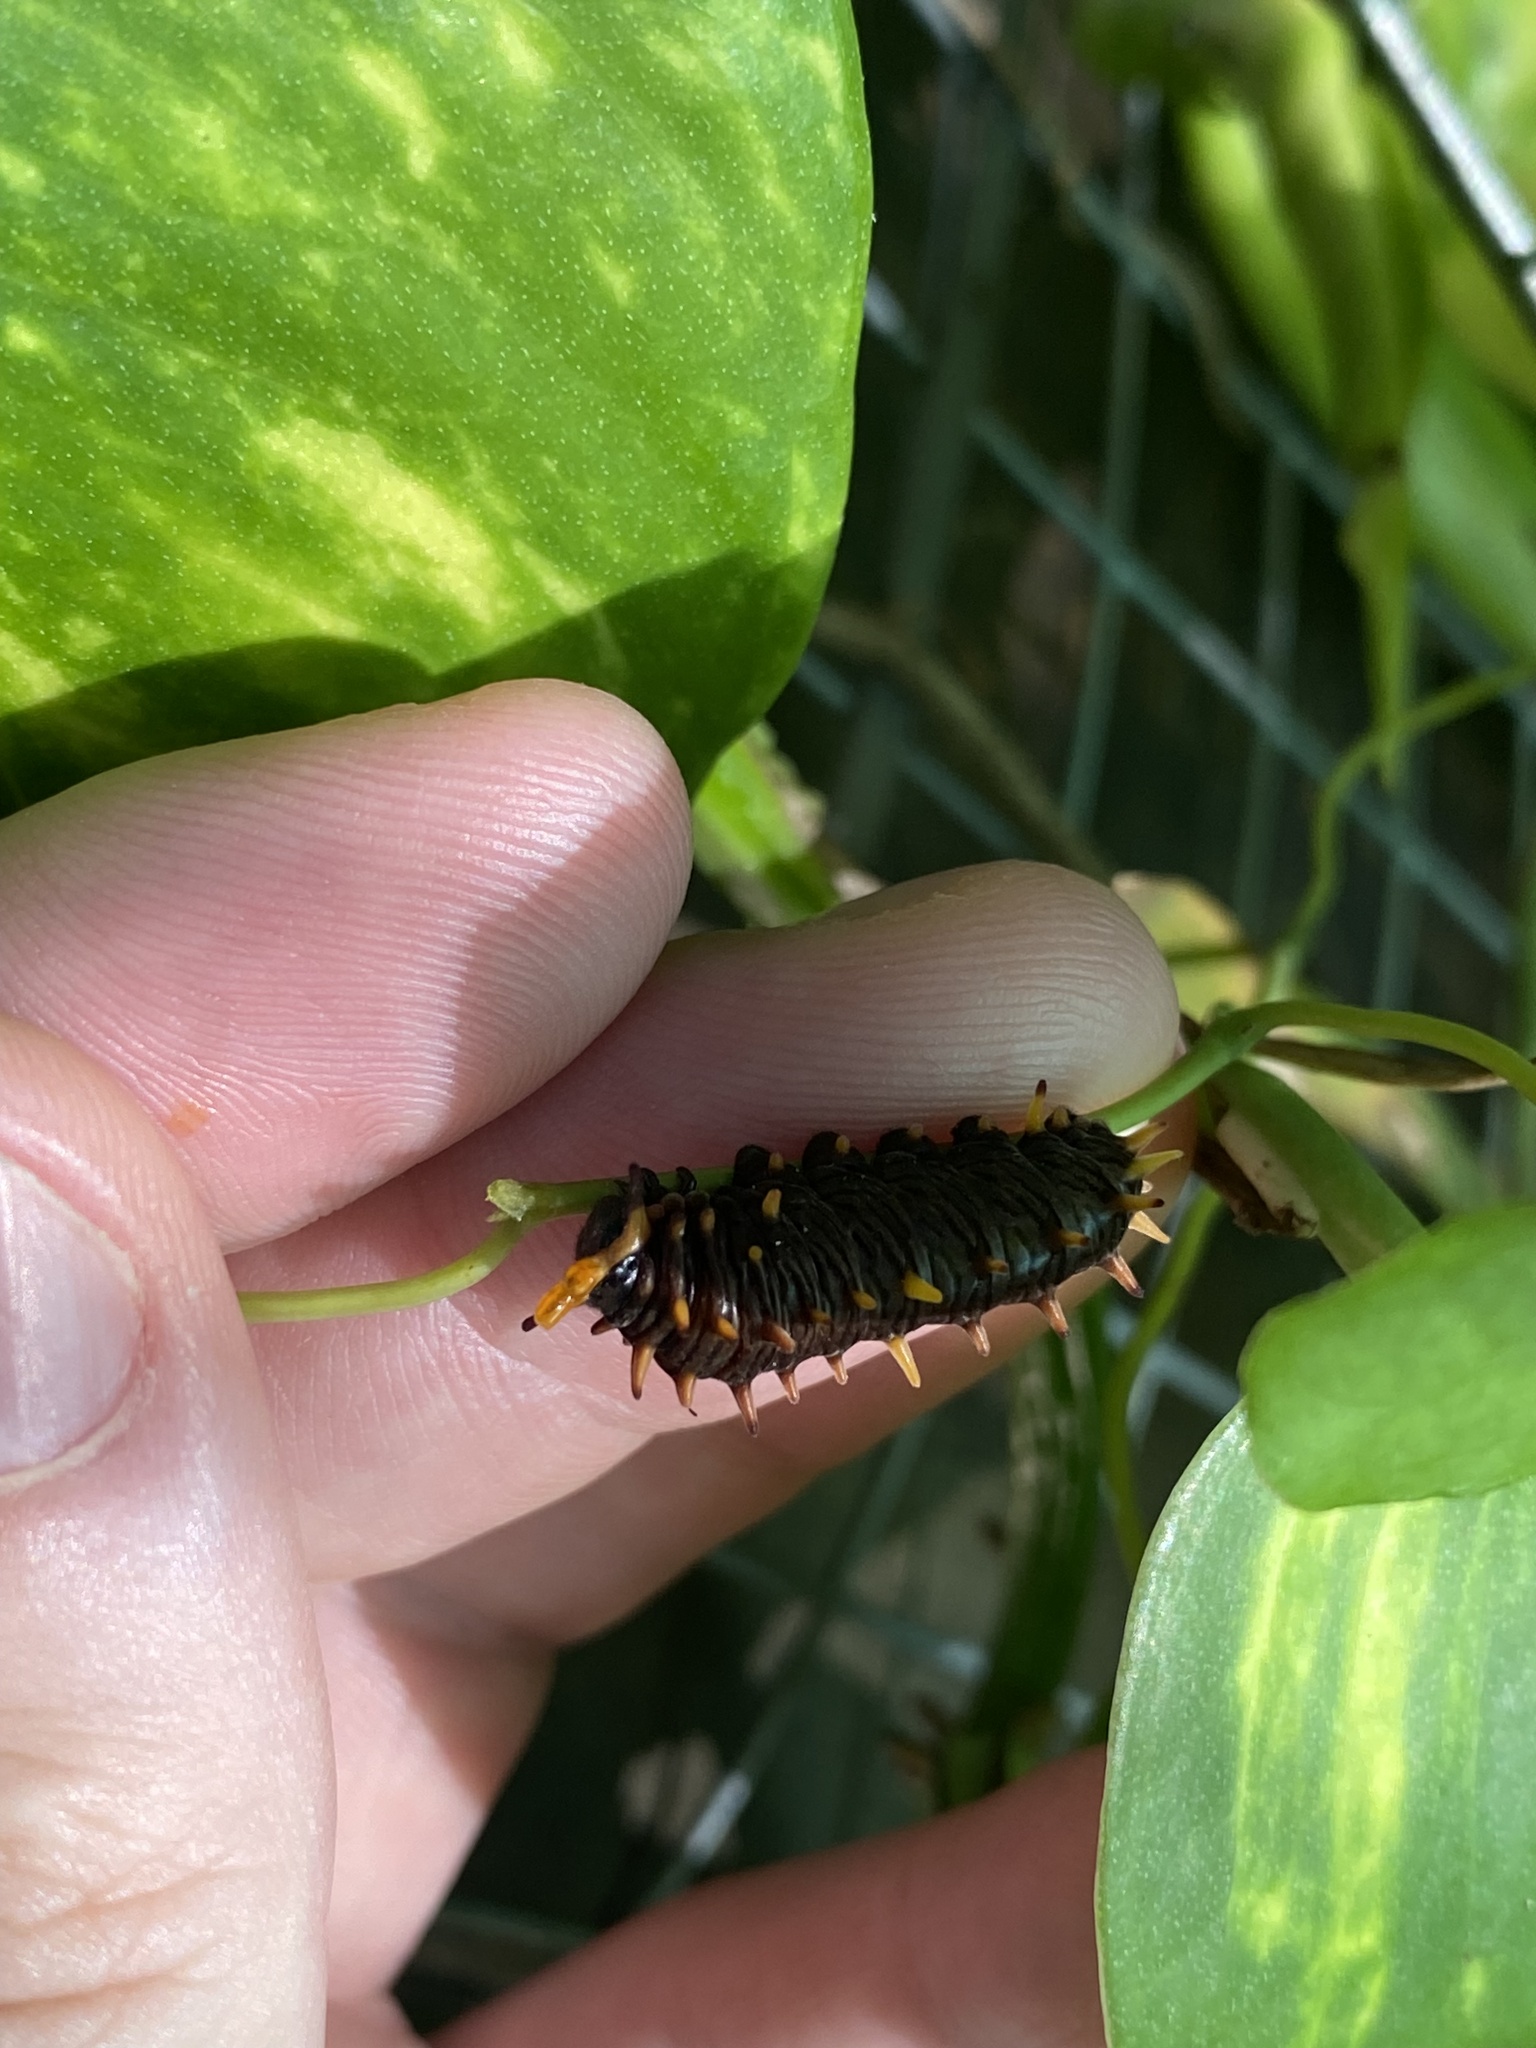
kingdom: Animalia
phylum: Arthropoda
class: Insecta
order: Lepidoptera
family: Papilionidae
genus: Battus
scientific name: Battus polydamas
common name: Polydamas swallowtail
